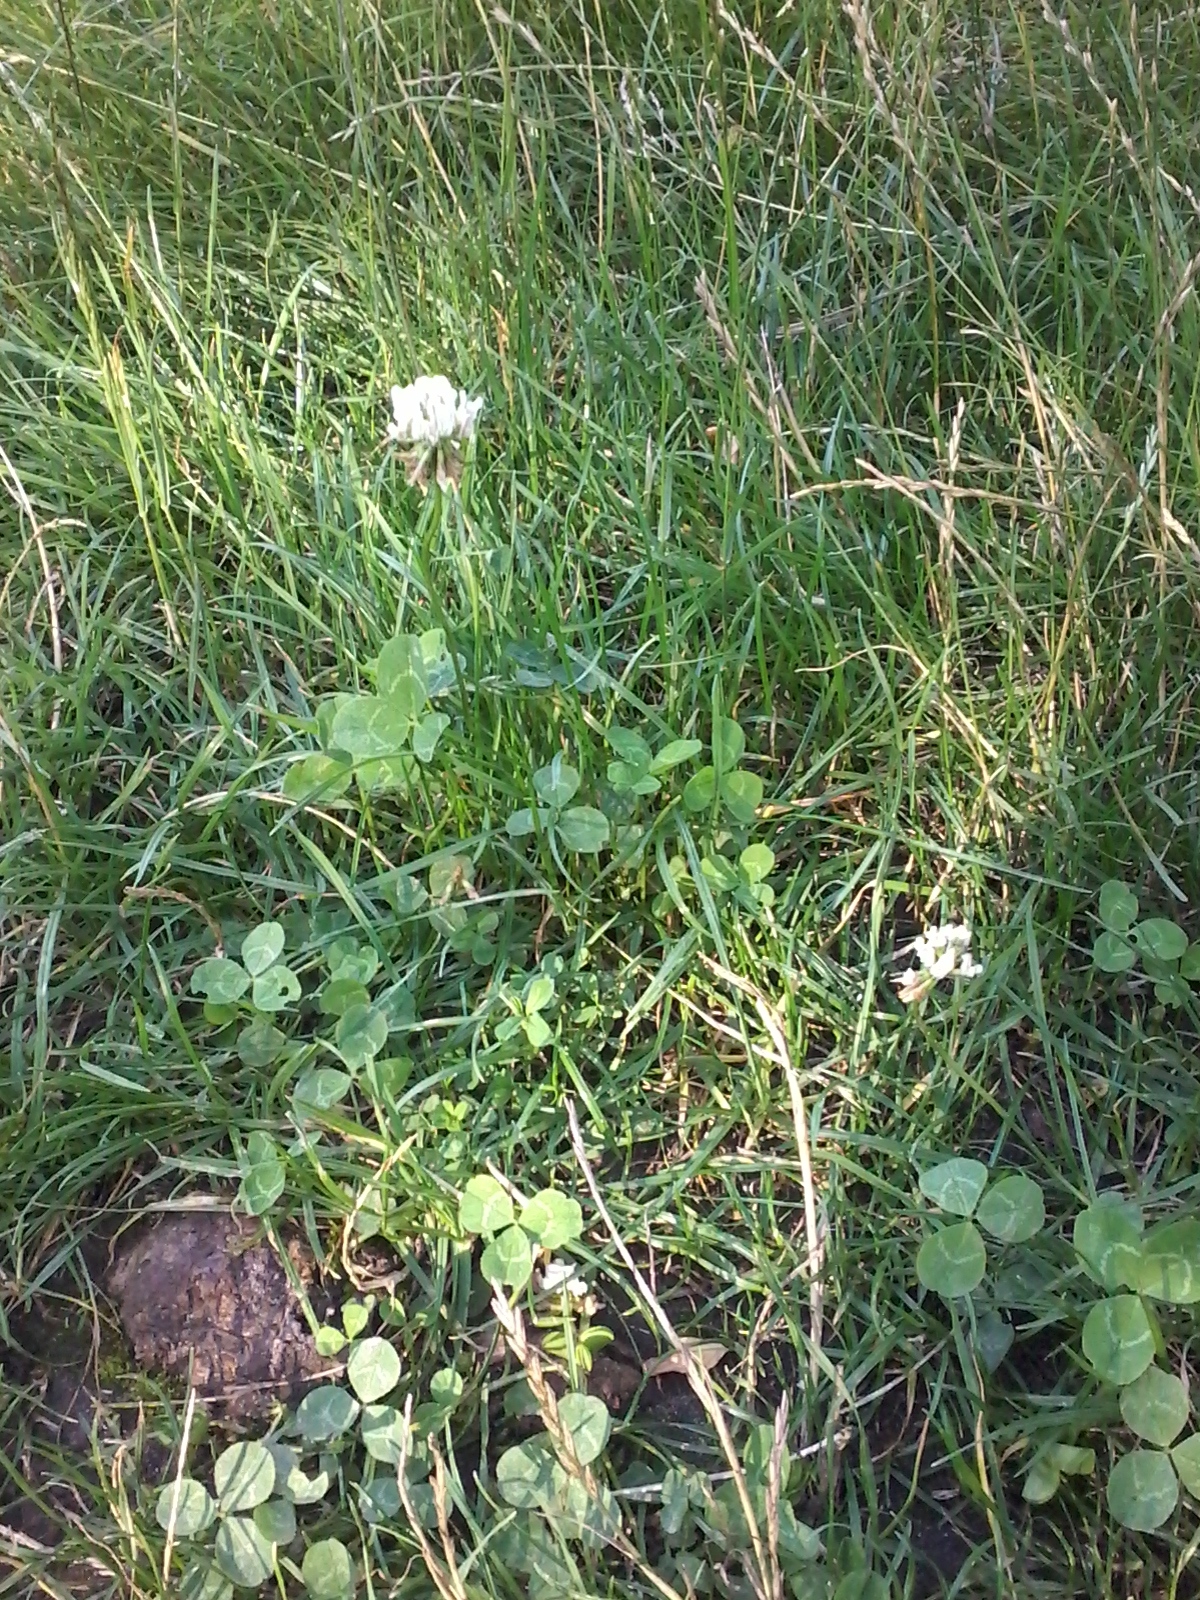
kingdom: Plantae
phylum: Tracheophyta
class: Magnoliopsida
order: Fabales
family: Fabaceae
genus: Trifolium
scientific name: Trifolium repens
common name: White clover
